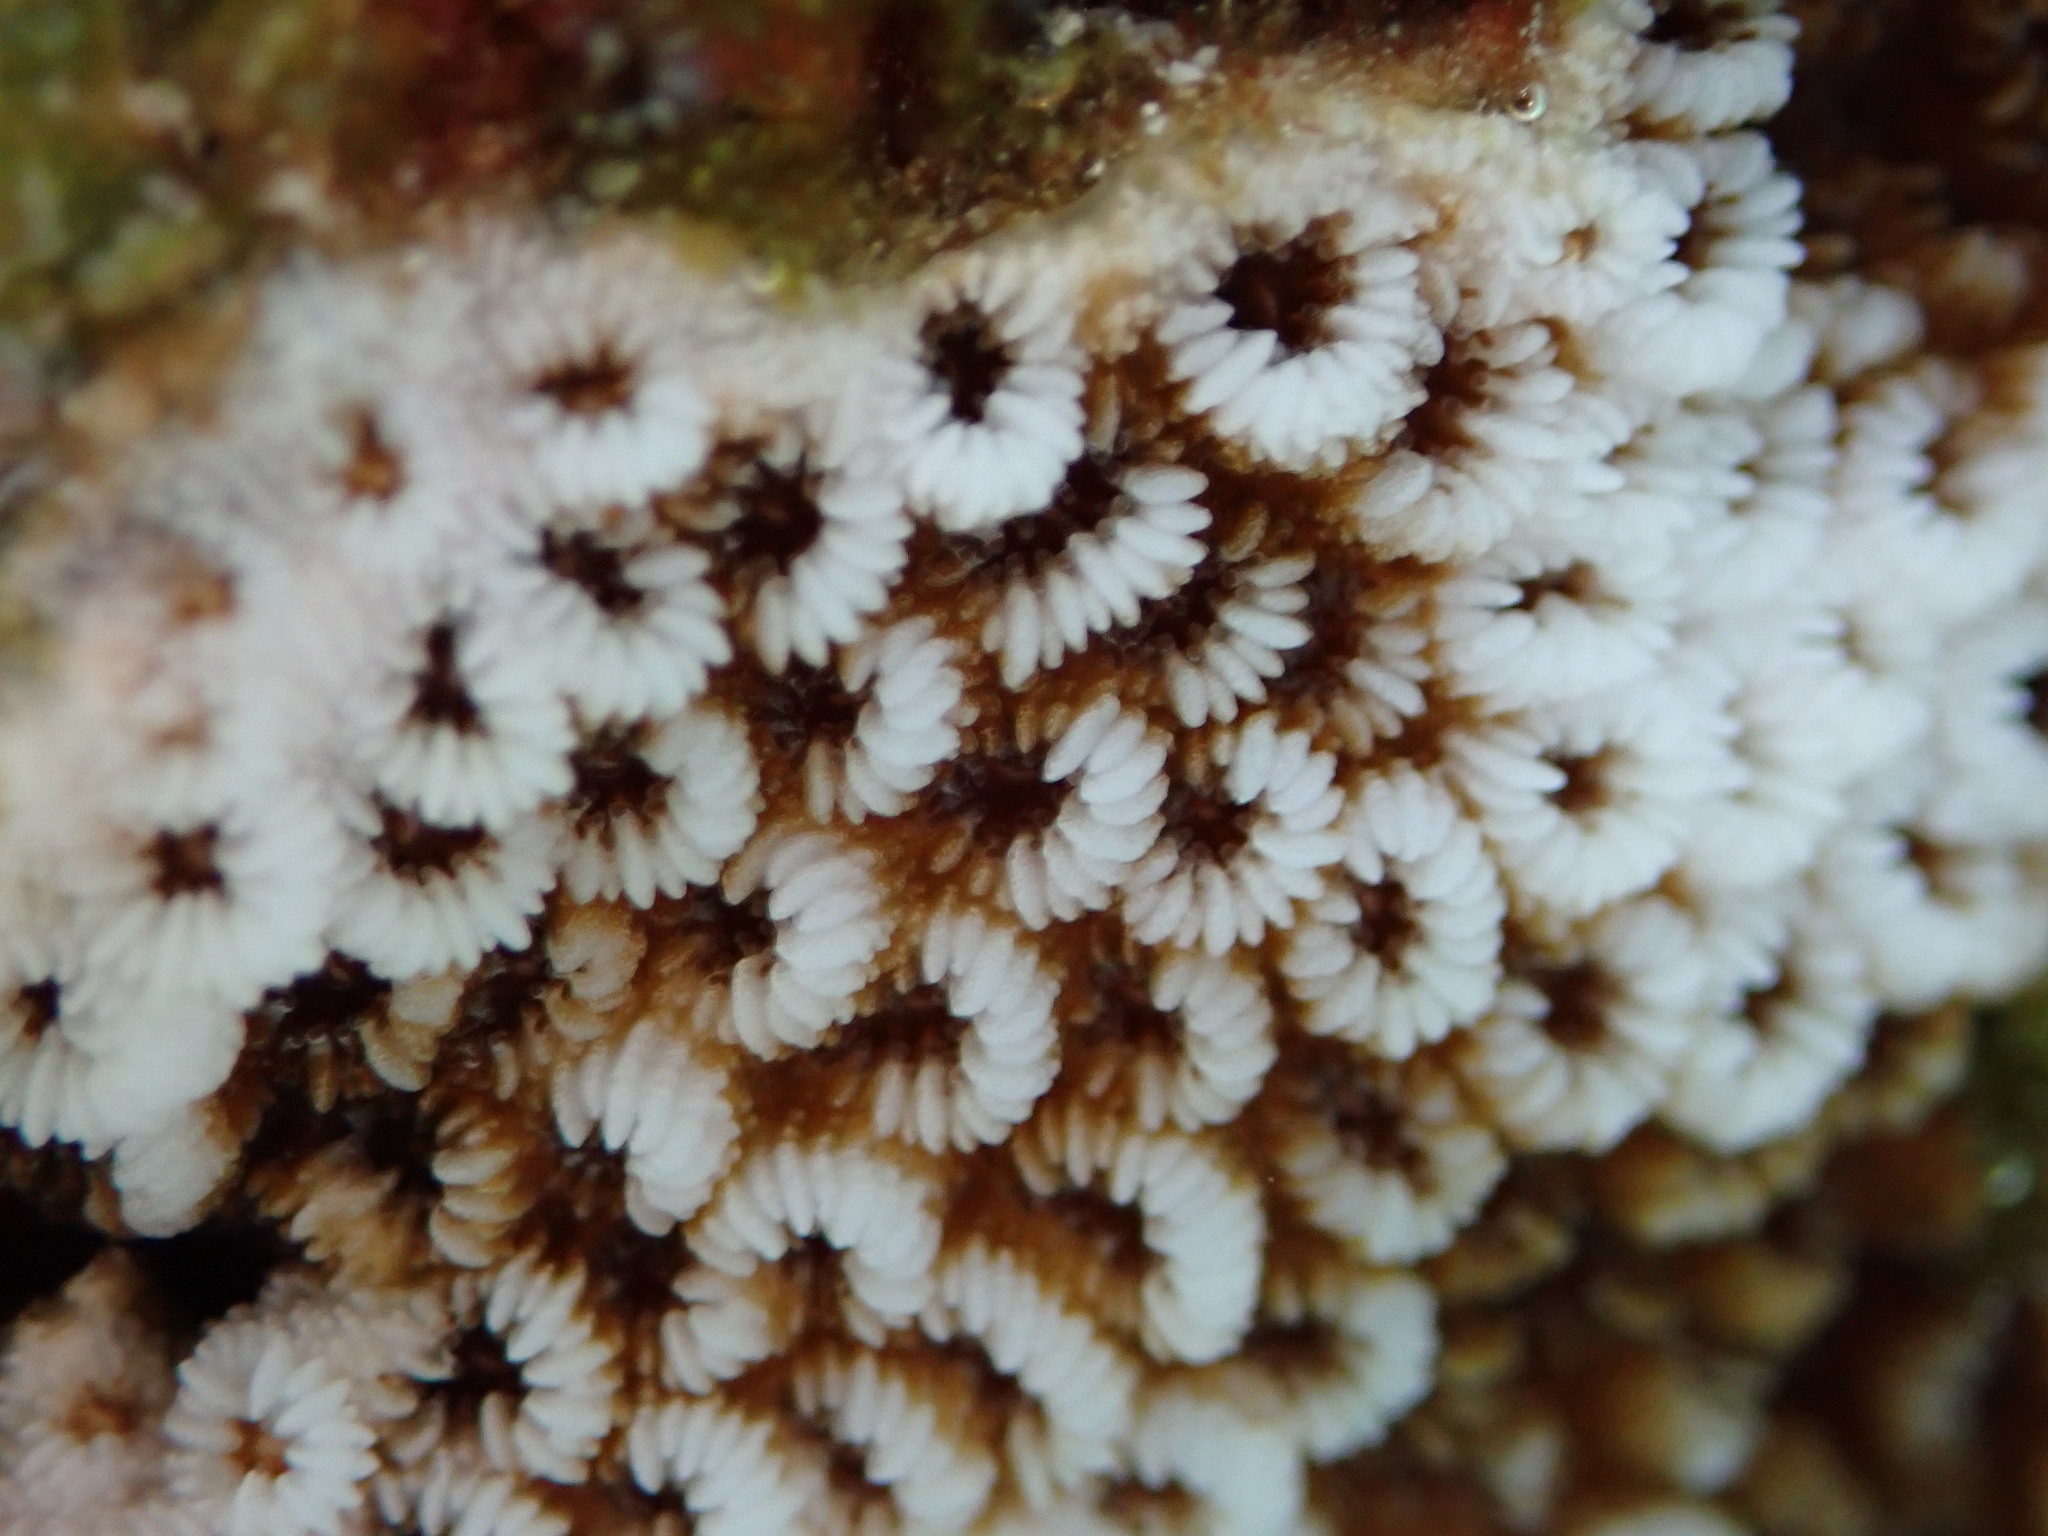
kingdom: Animalia
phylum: Cnidaria
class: Anthozoa
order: Scleractinia
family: Merulinidae
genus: Cyphastrea
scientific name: Cyphastrea ocellina
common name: Lesser knob coral
